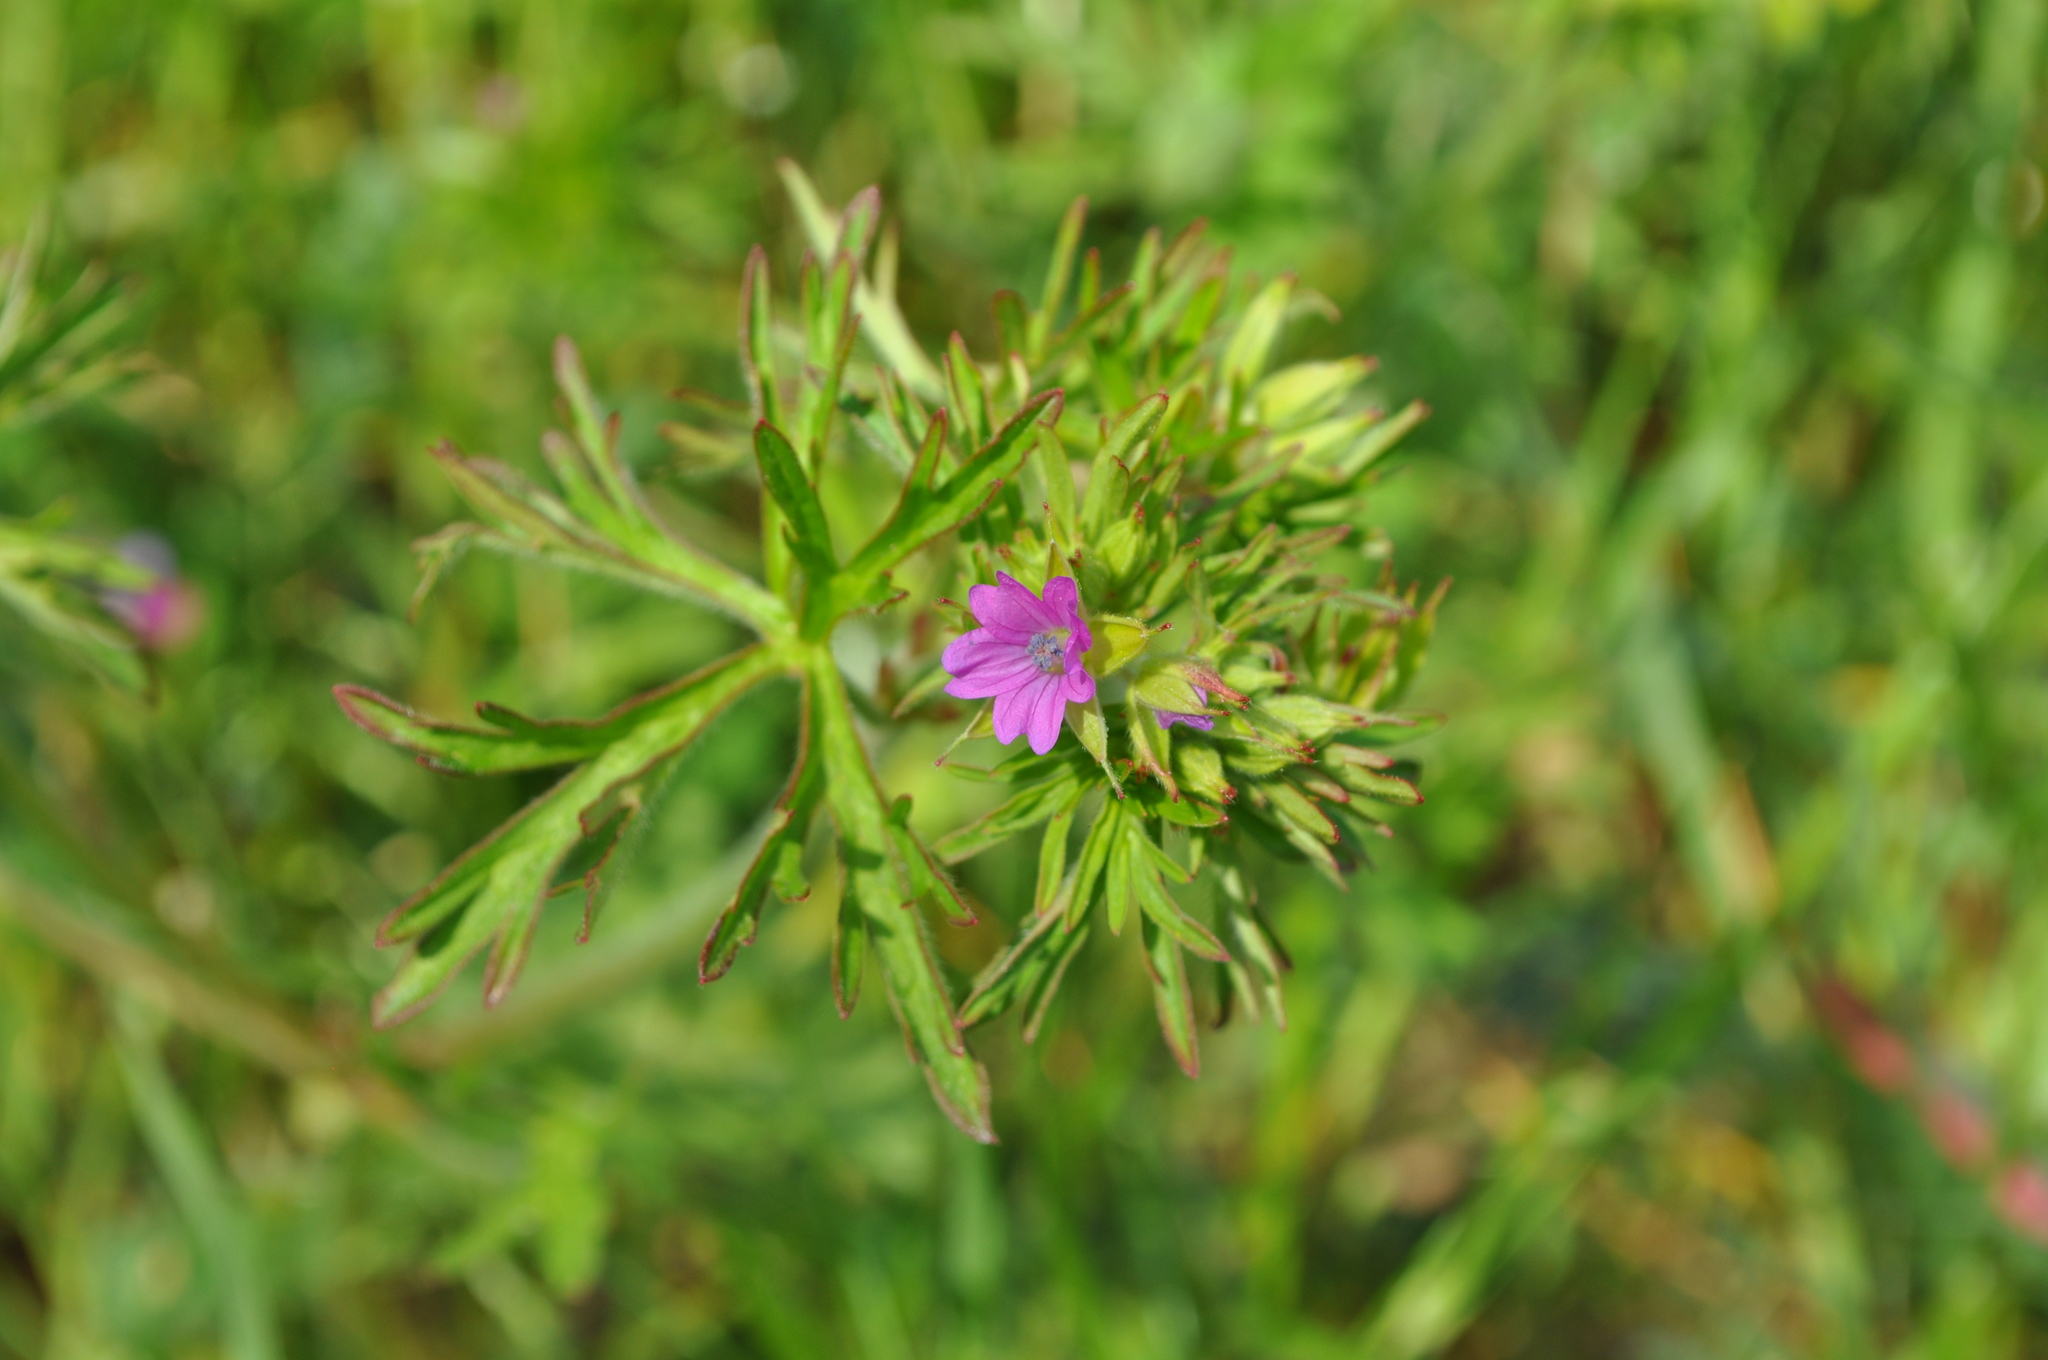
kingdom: Plantae
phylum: Tracheophyta
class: Magnoliopsida
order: Geraniales
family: Geraniaceae
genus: Geranium
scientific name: Geranium dissectum
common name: Cut-leaved crane's-bill
